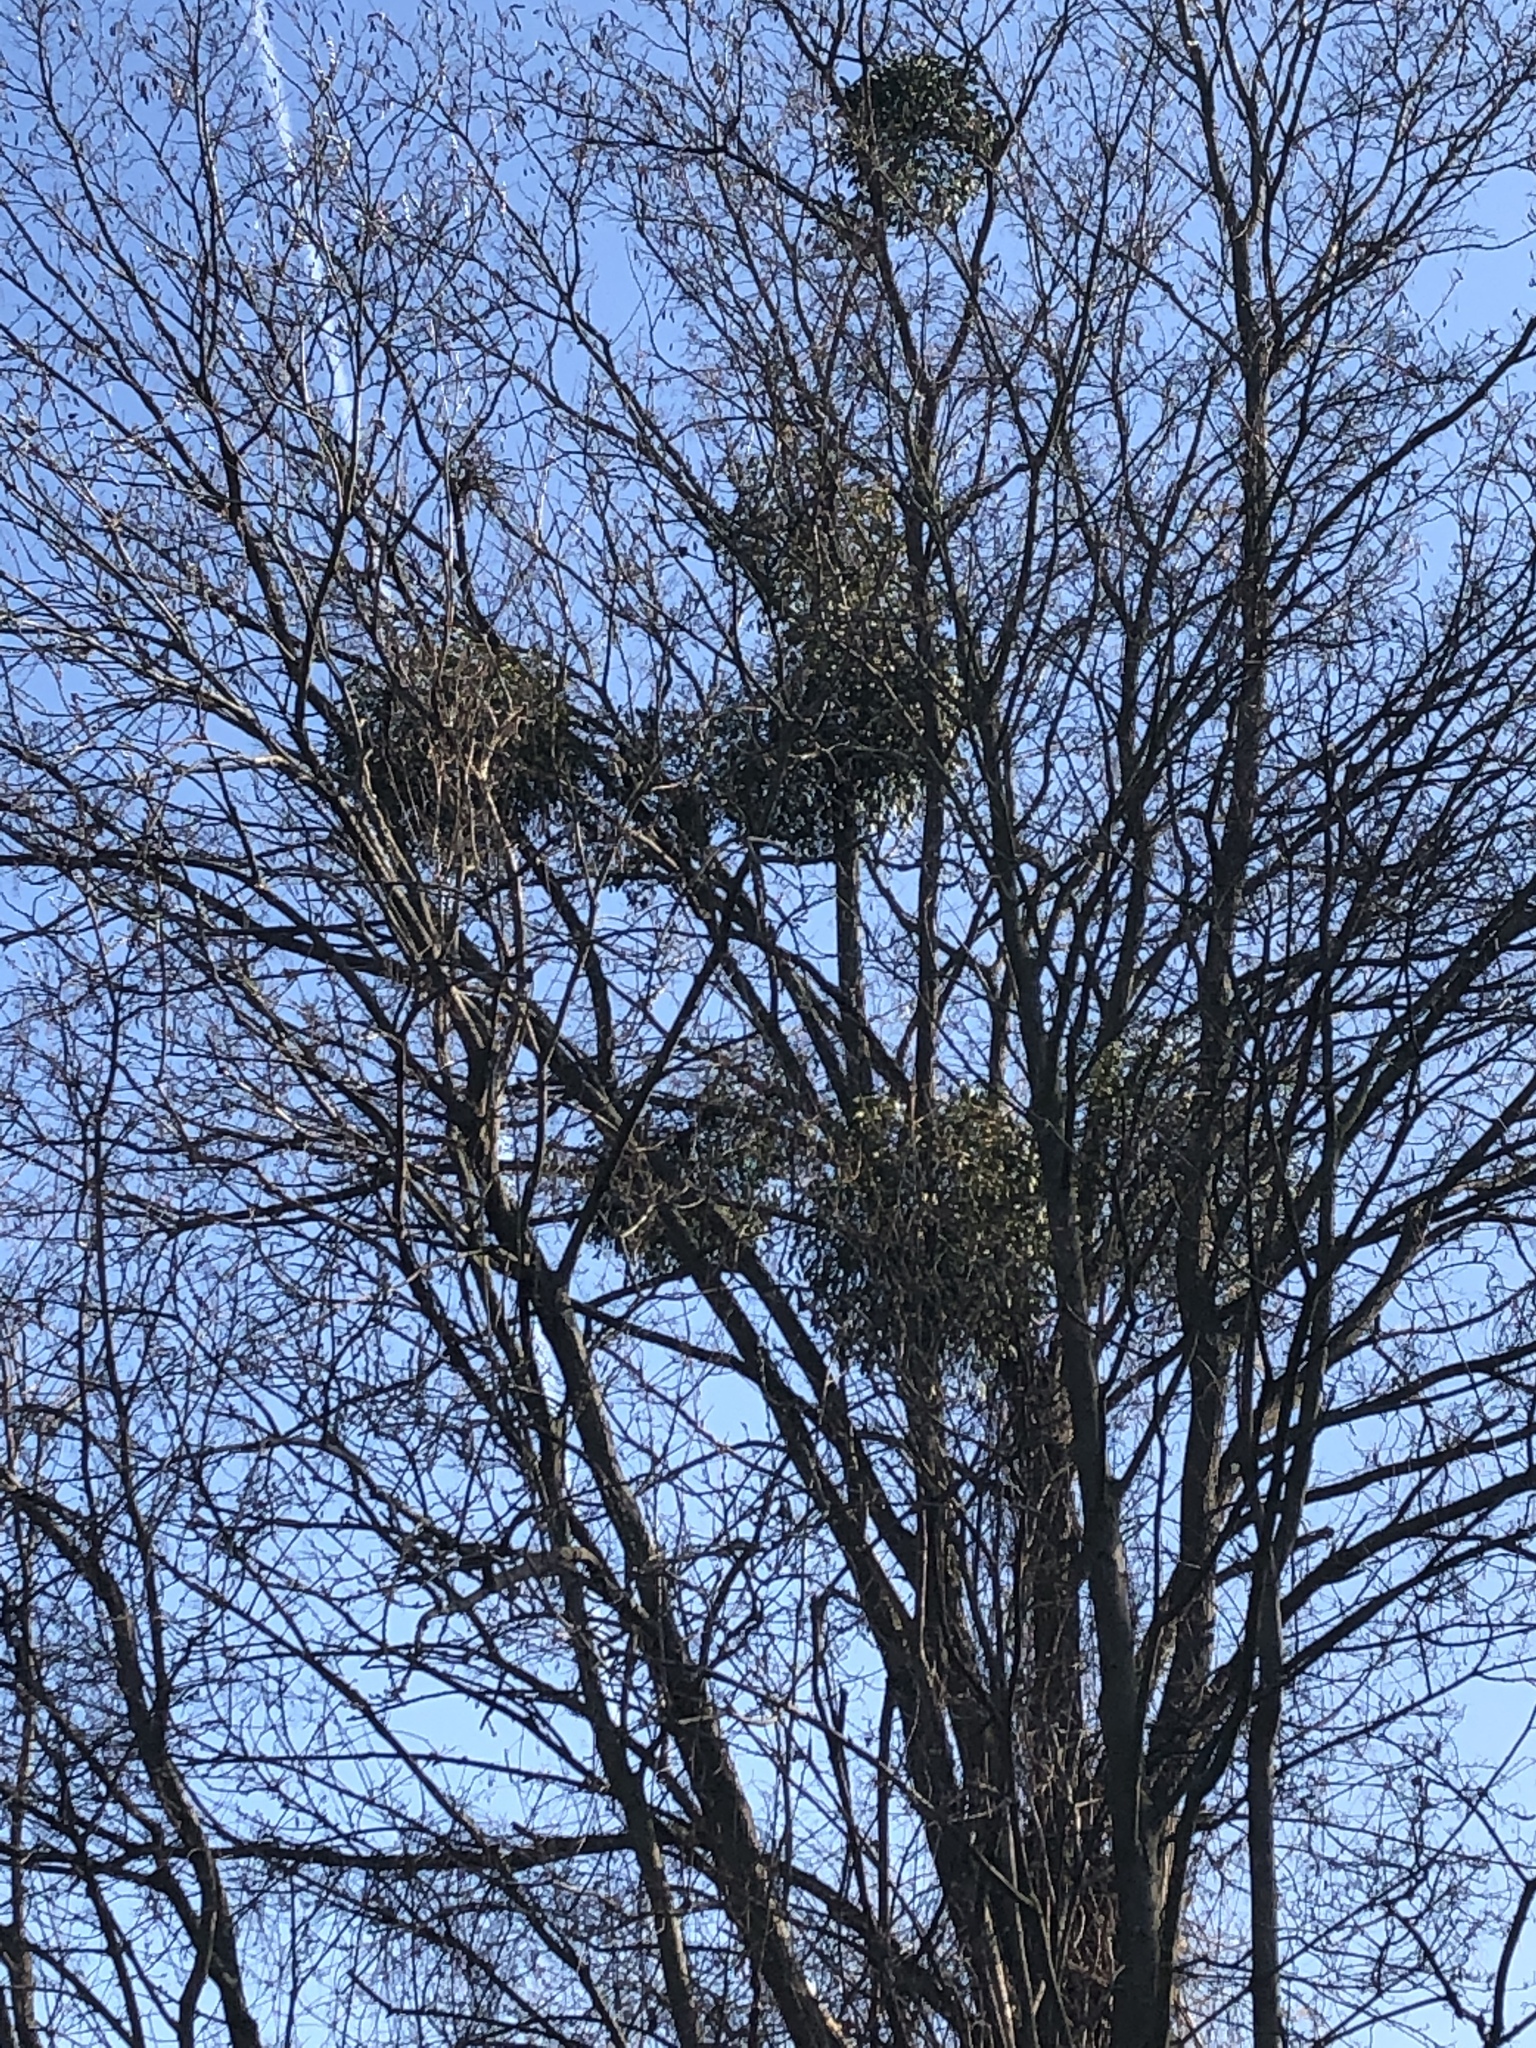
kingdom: Plantae
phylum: Tracheophyta
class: Magnoliopsida
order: Santalales
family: Viscaceae
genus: Viscum
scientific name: Viscum album
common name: Mistletoe
